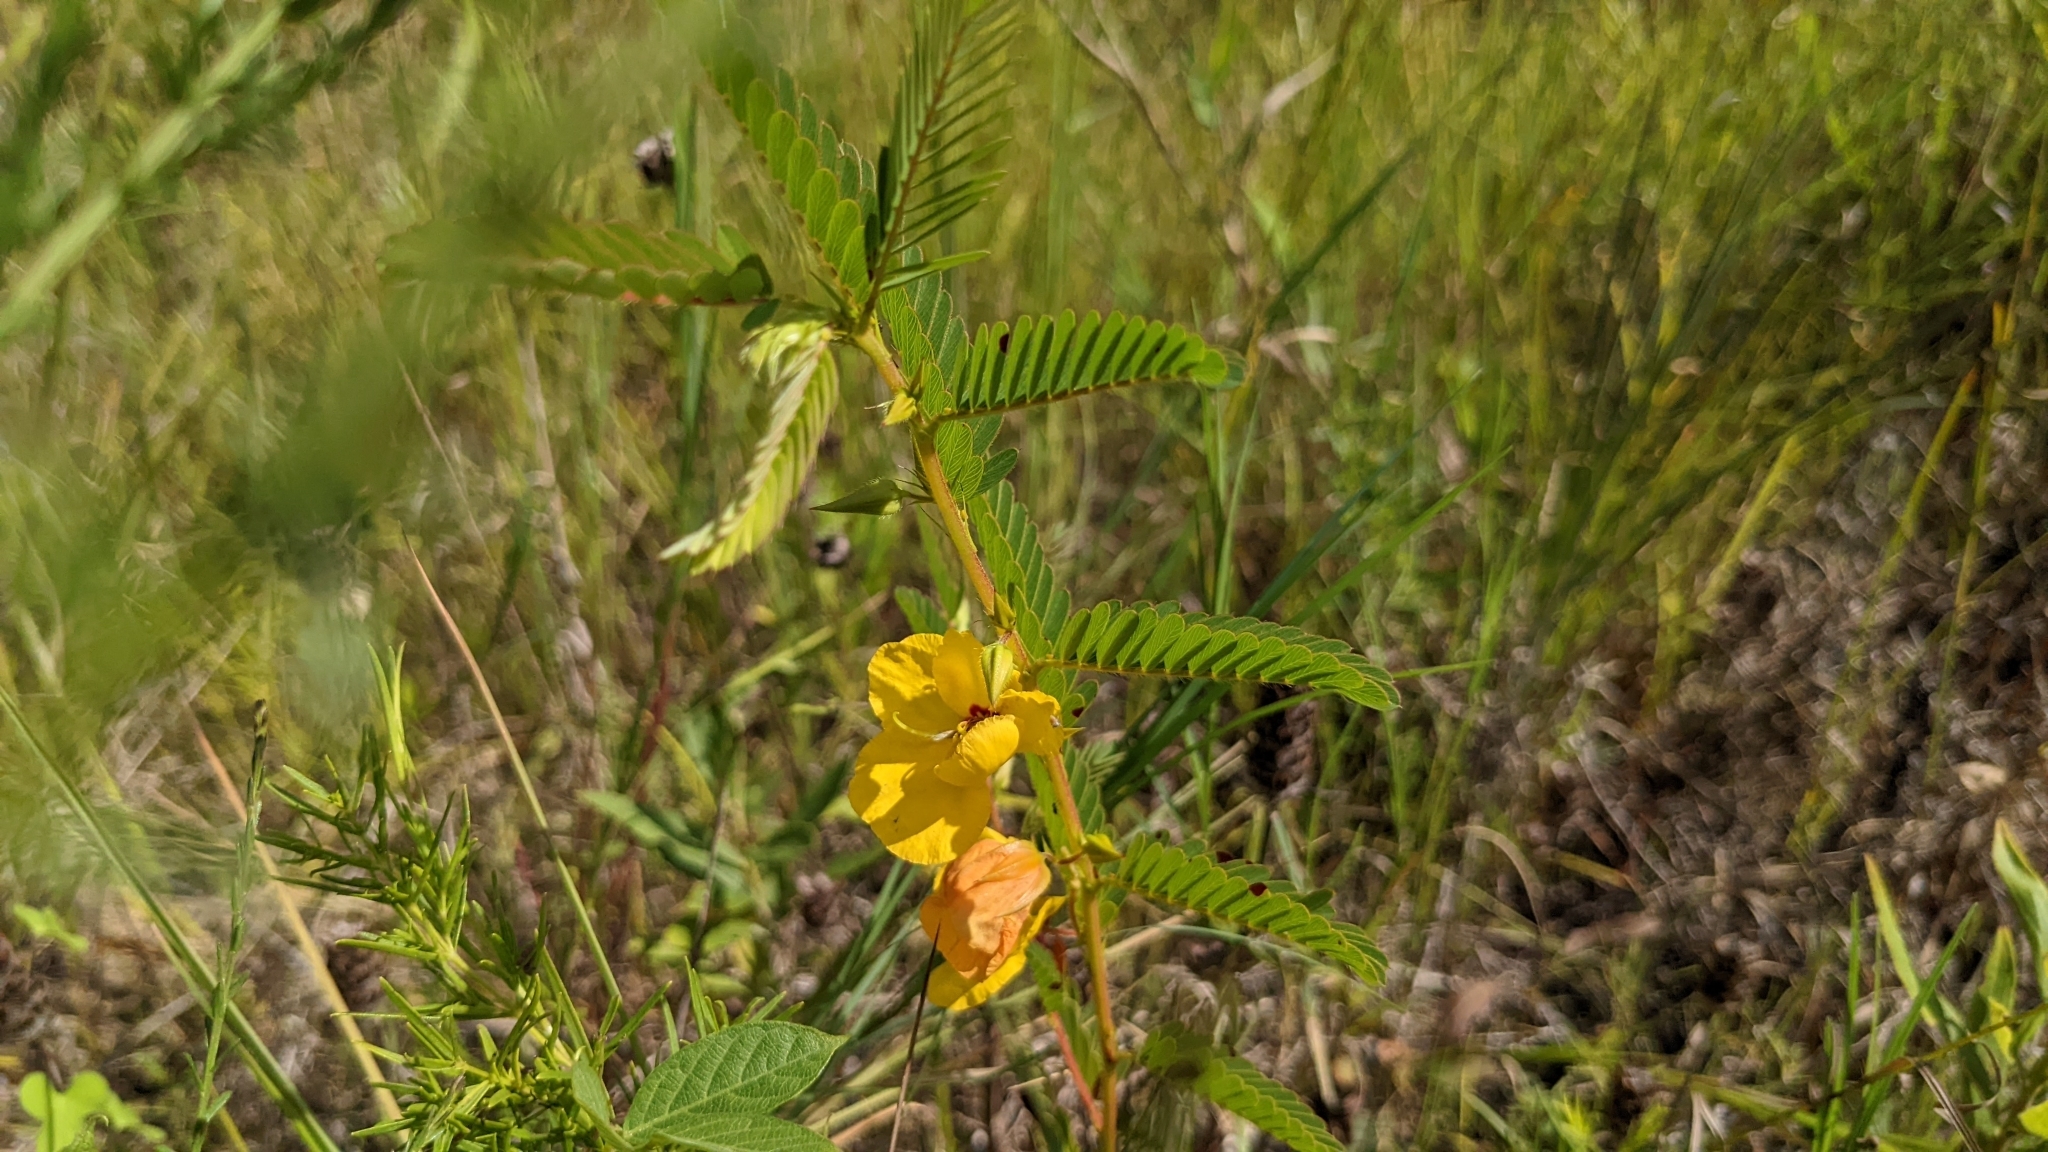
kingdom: Plantae
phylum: Tracheophyta
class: Magnoliopsida
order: Fabales
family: Fabaceae
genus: Chamaecrista
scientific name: Chamaecrista fasciculata
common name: Golden cassia
